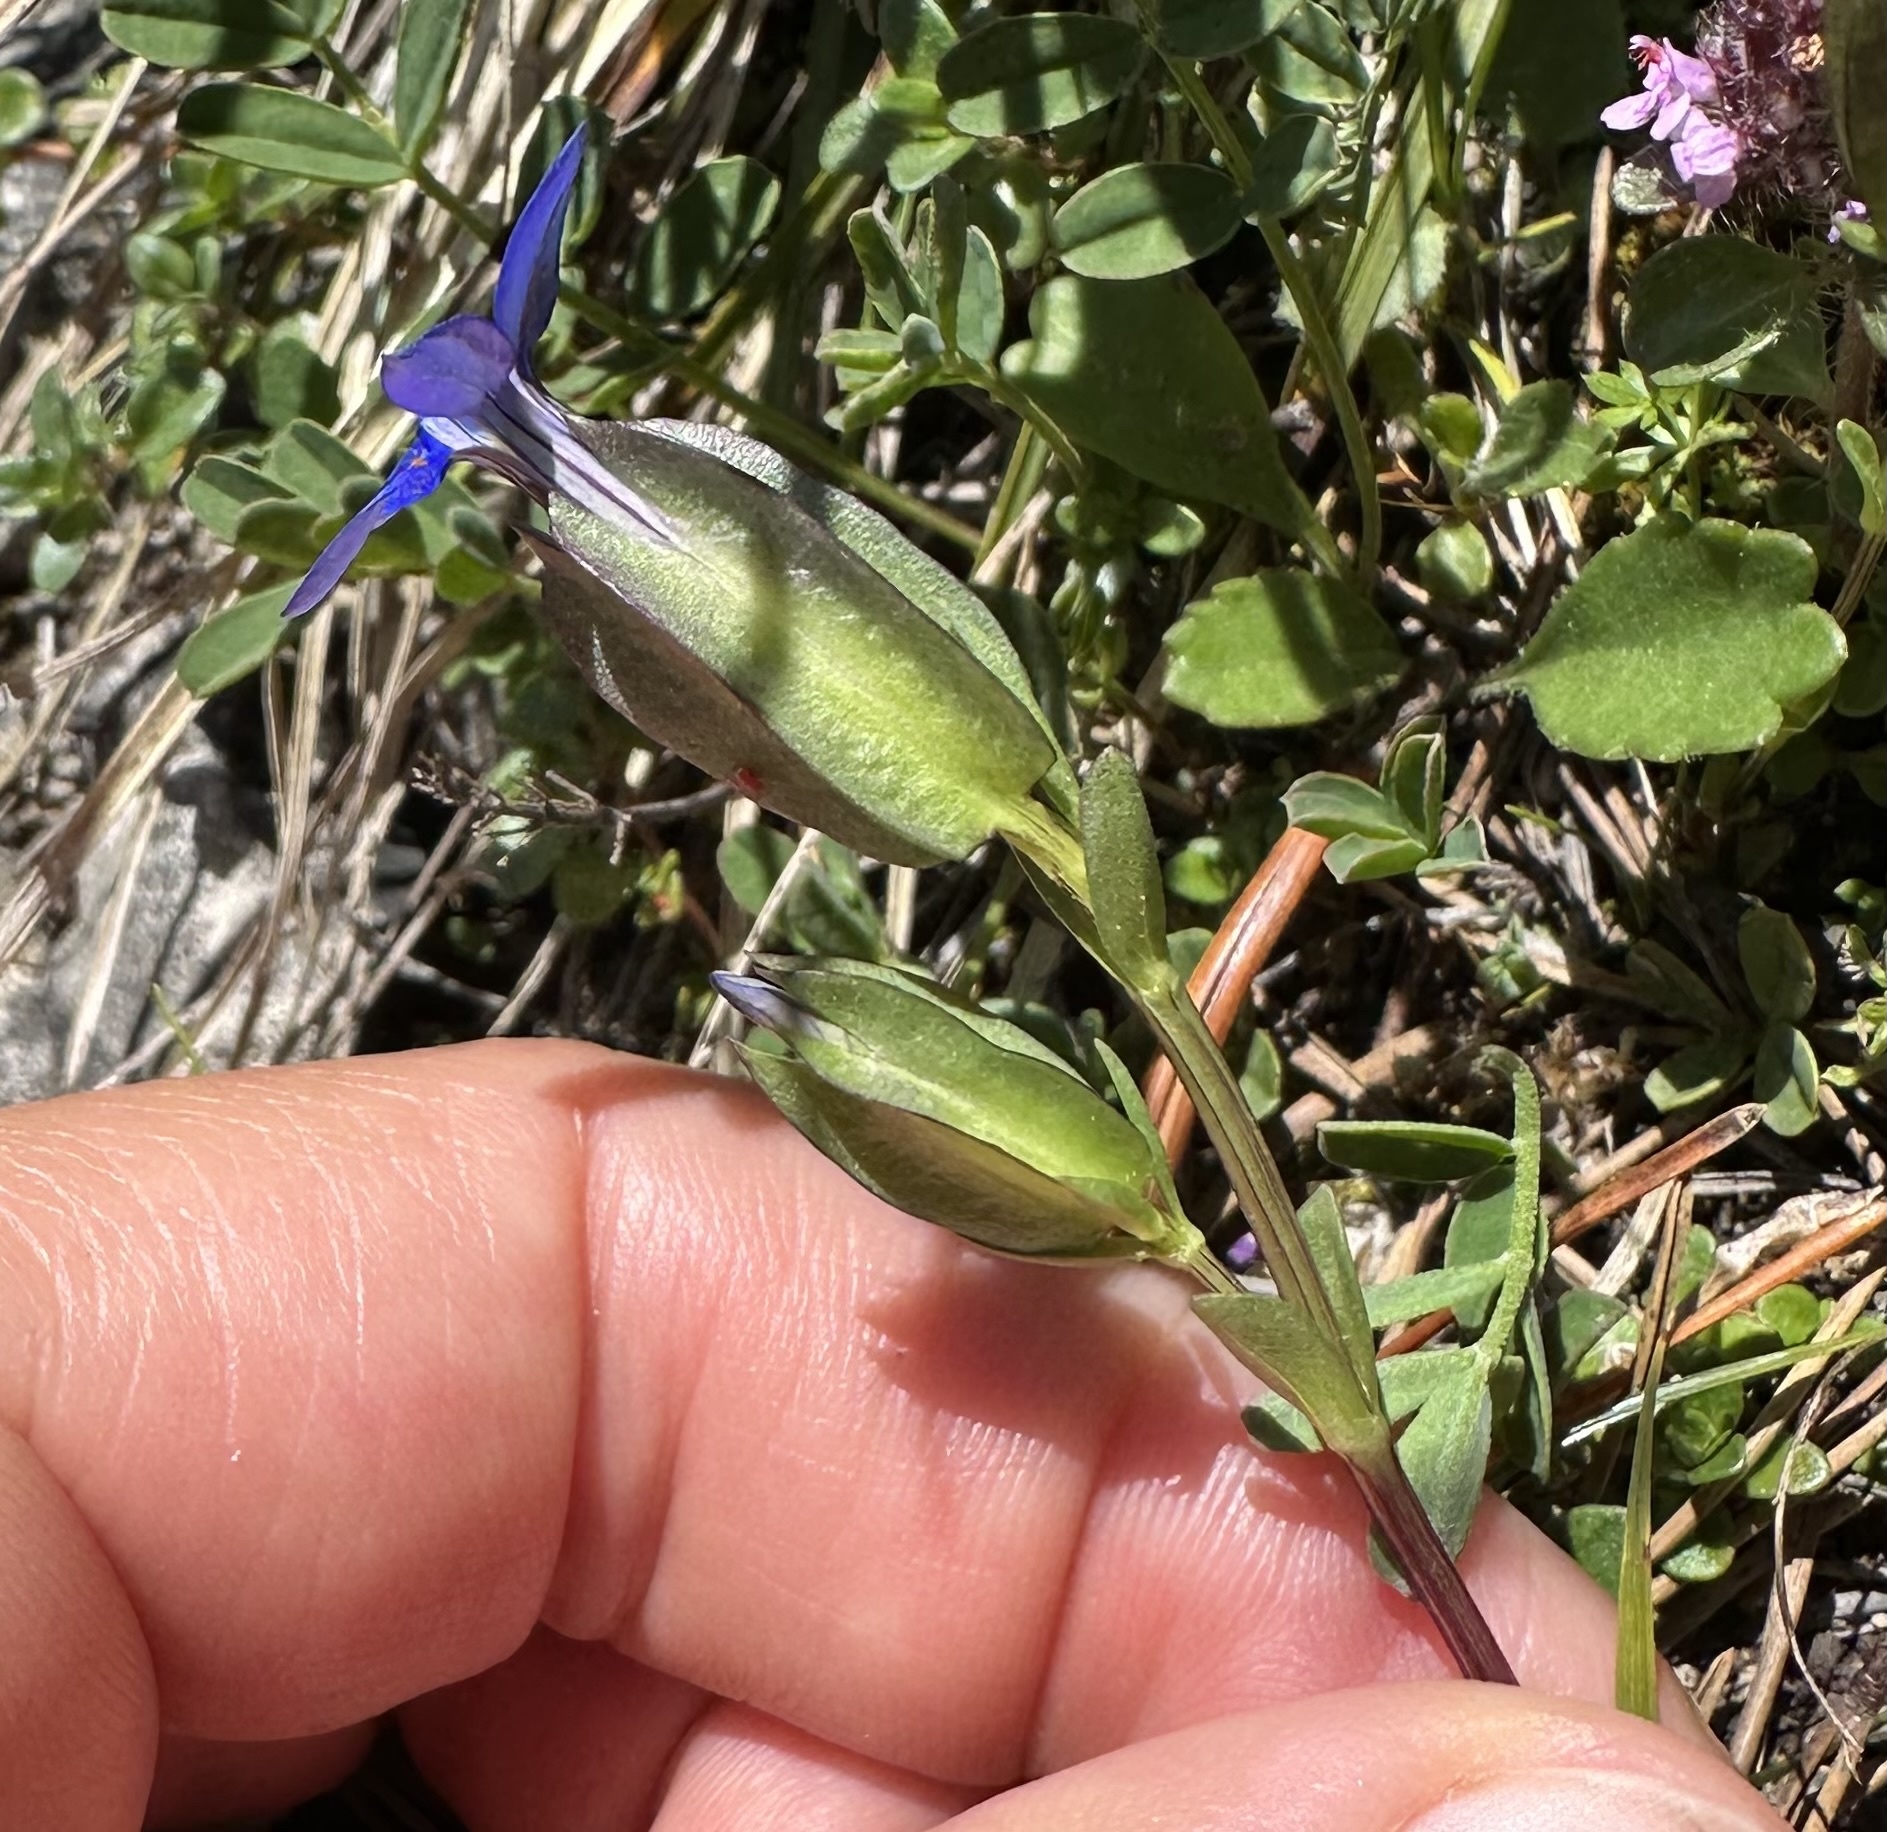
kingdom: Plantae
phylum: Tracheophyta
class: Magnoliopsida
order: Gentianales
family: Gentianaceae
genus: Gentiana
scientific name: Gentiana utriculosa
